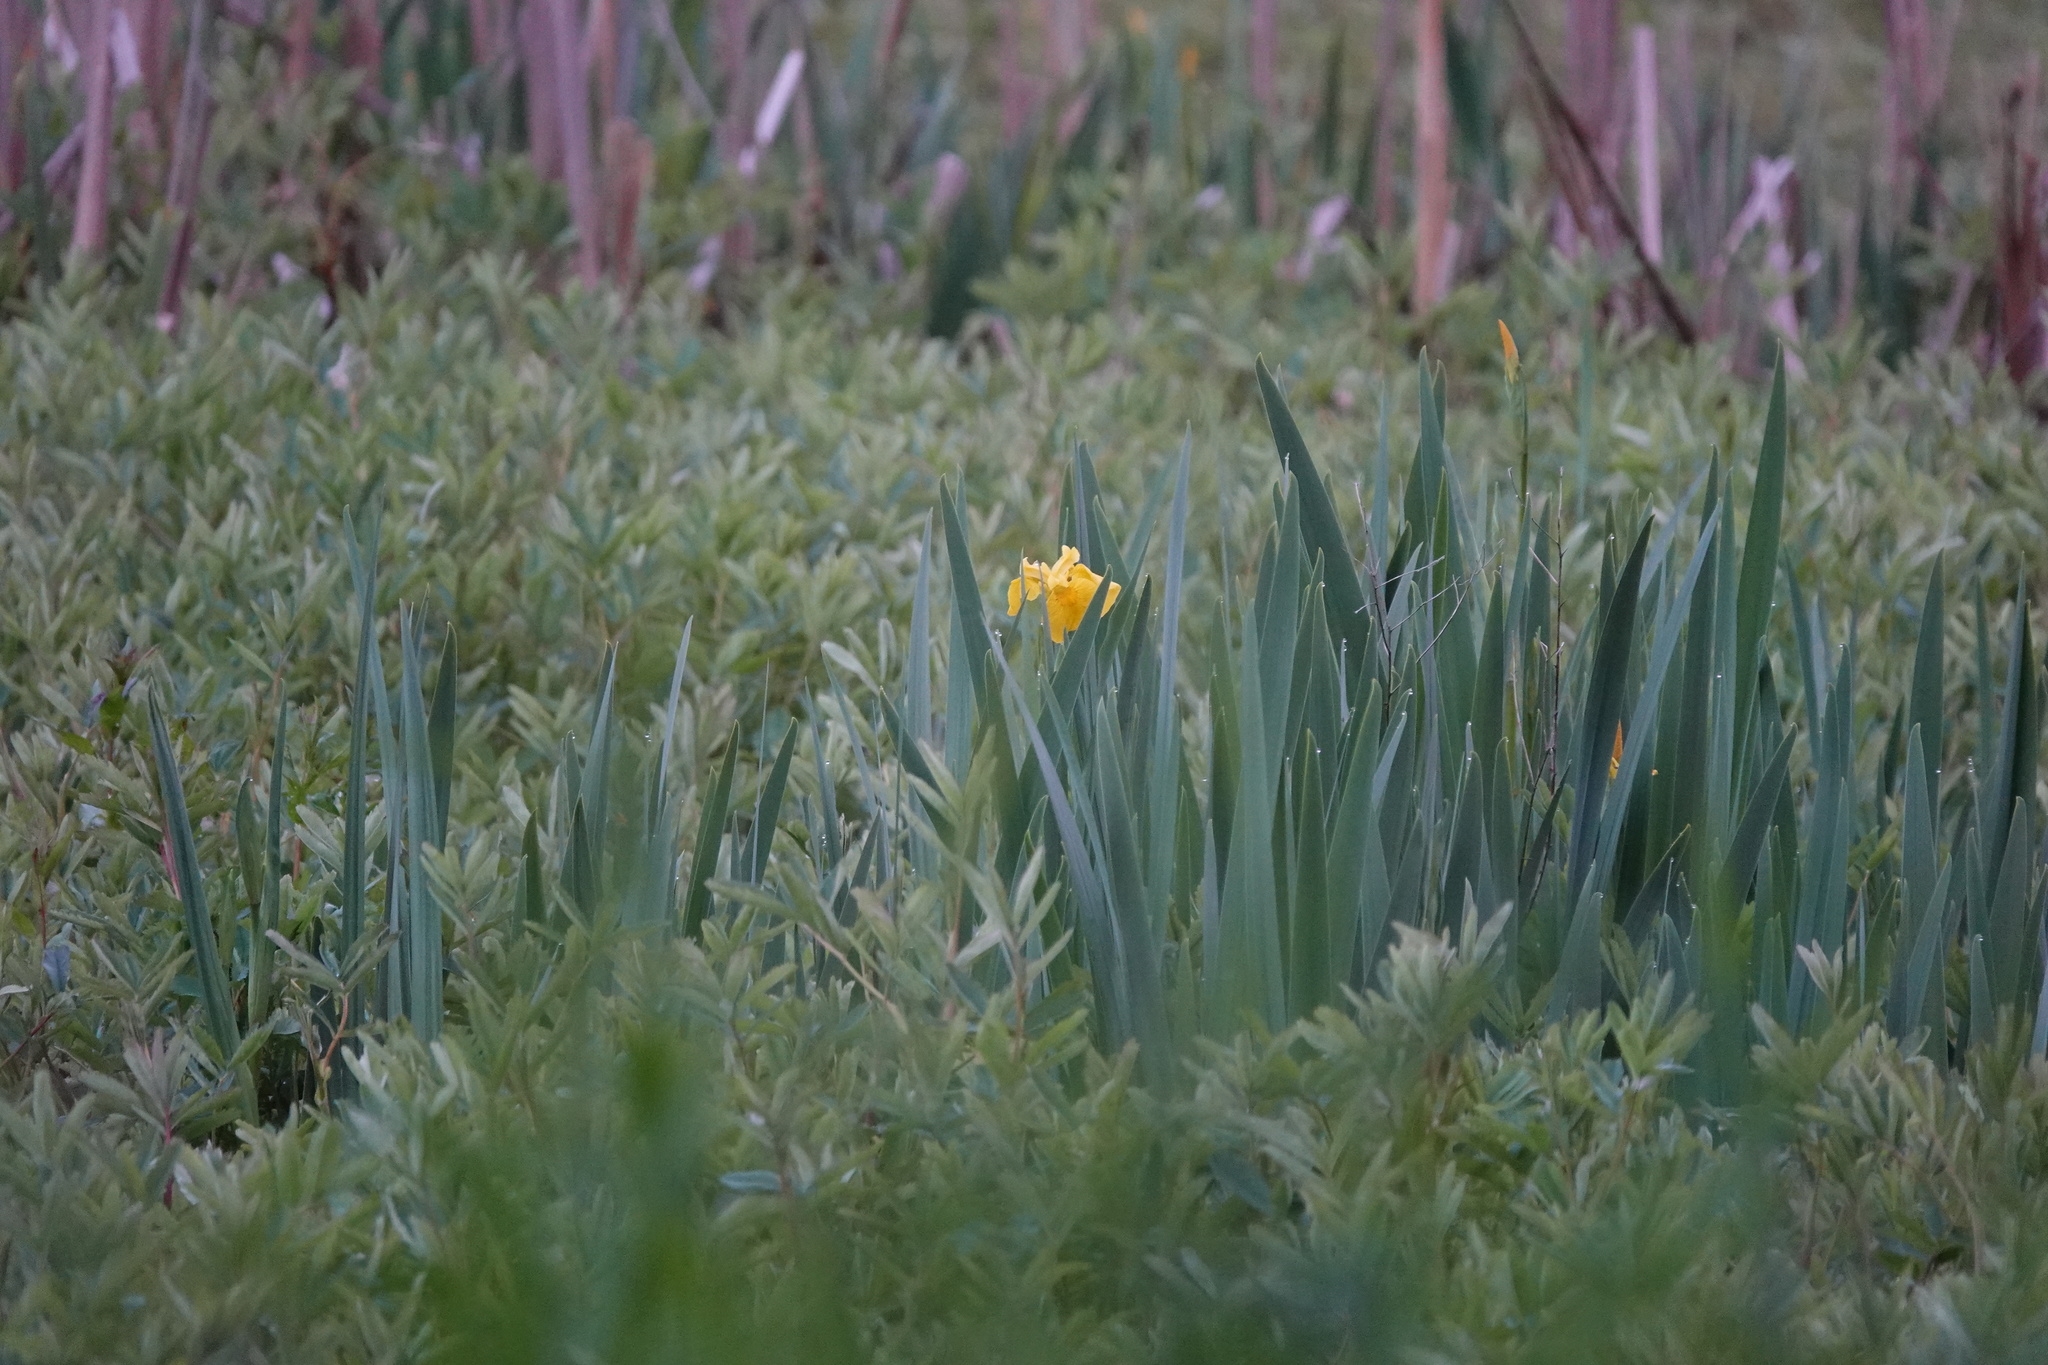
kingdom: Plantae
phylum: Tracheophyta
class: Liliopsida
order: Asparagales
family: Iridaceae
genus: Iris
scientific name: Iris pseudacorus
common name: Yellow flag
